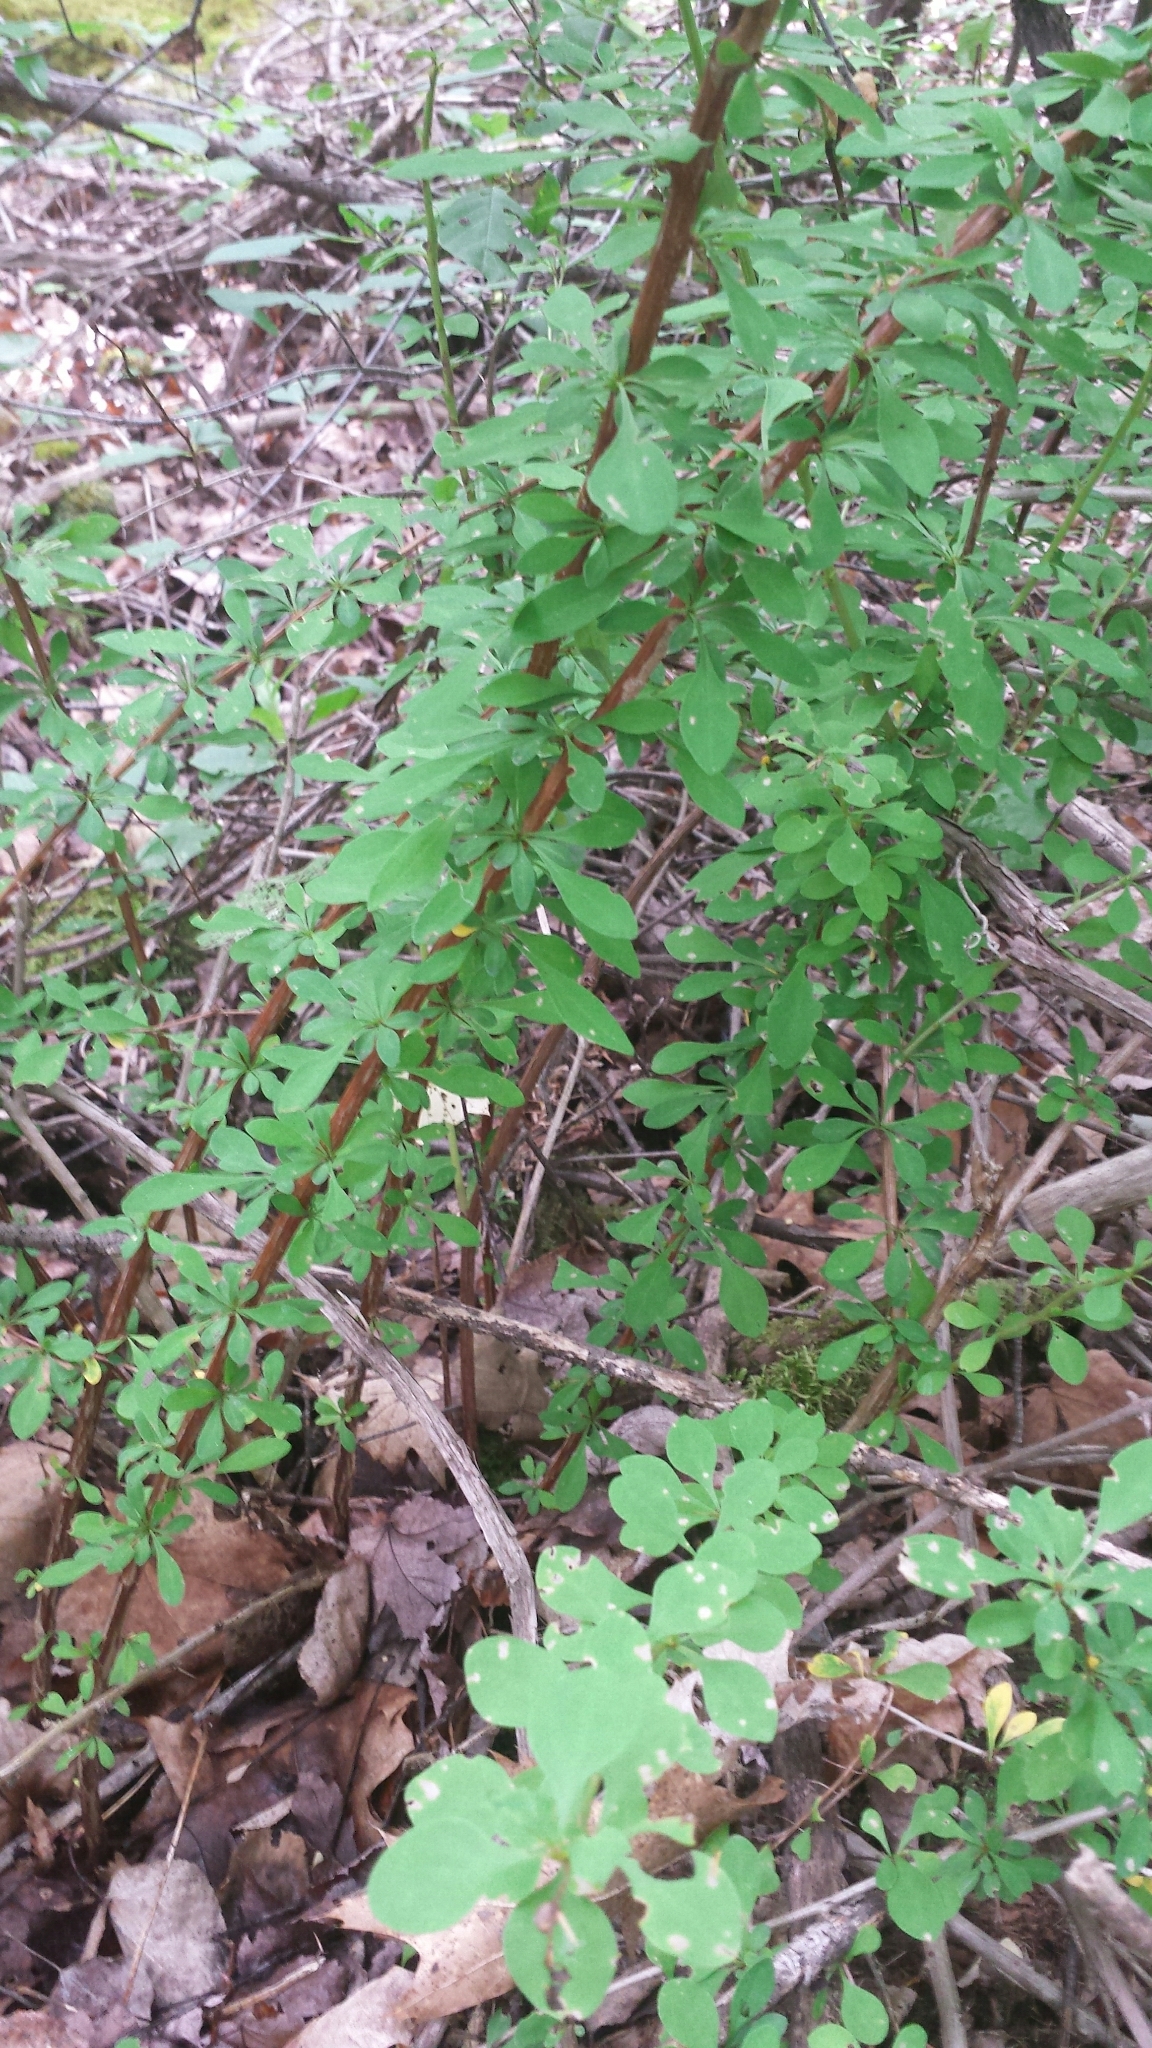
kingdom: Plantae
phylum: Tracheophyta
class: Magnoliopsida
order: Ranunculales
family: Berberidaceae
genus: Berberis
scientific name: Berberis thunbergii
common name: Japanese barberry
